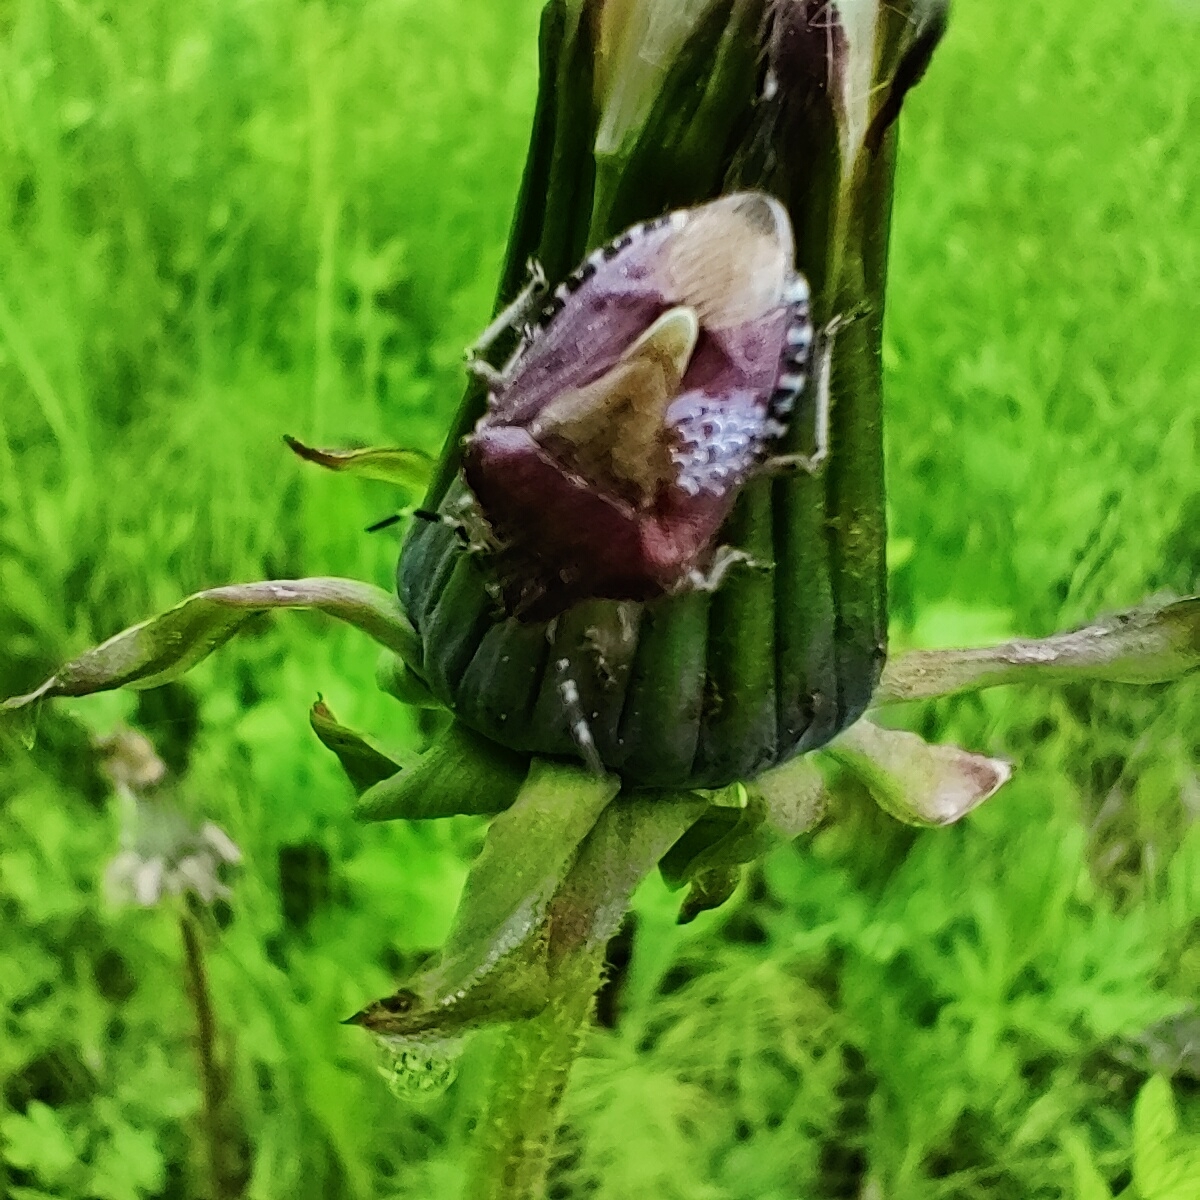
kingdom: Animalia
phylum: Arthropoda
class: Insecta
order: Hemiptera
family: Pentatomidae
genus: Dolycoris
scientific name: Dolycoris baccarum
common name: Sloe bug
